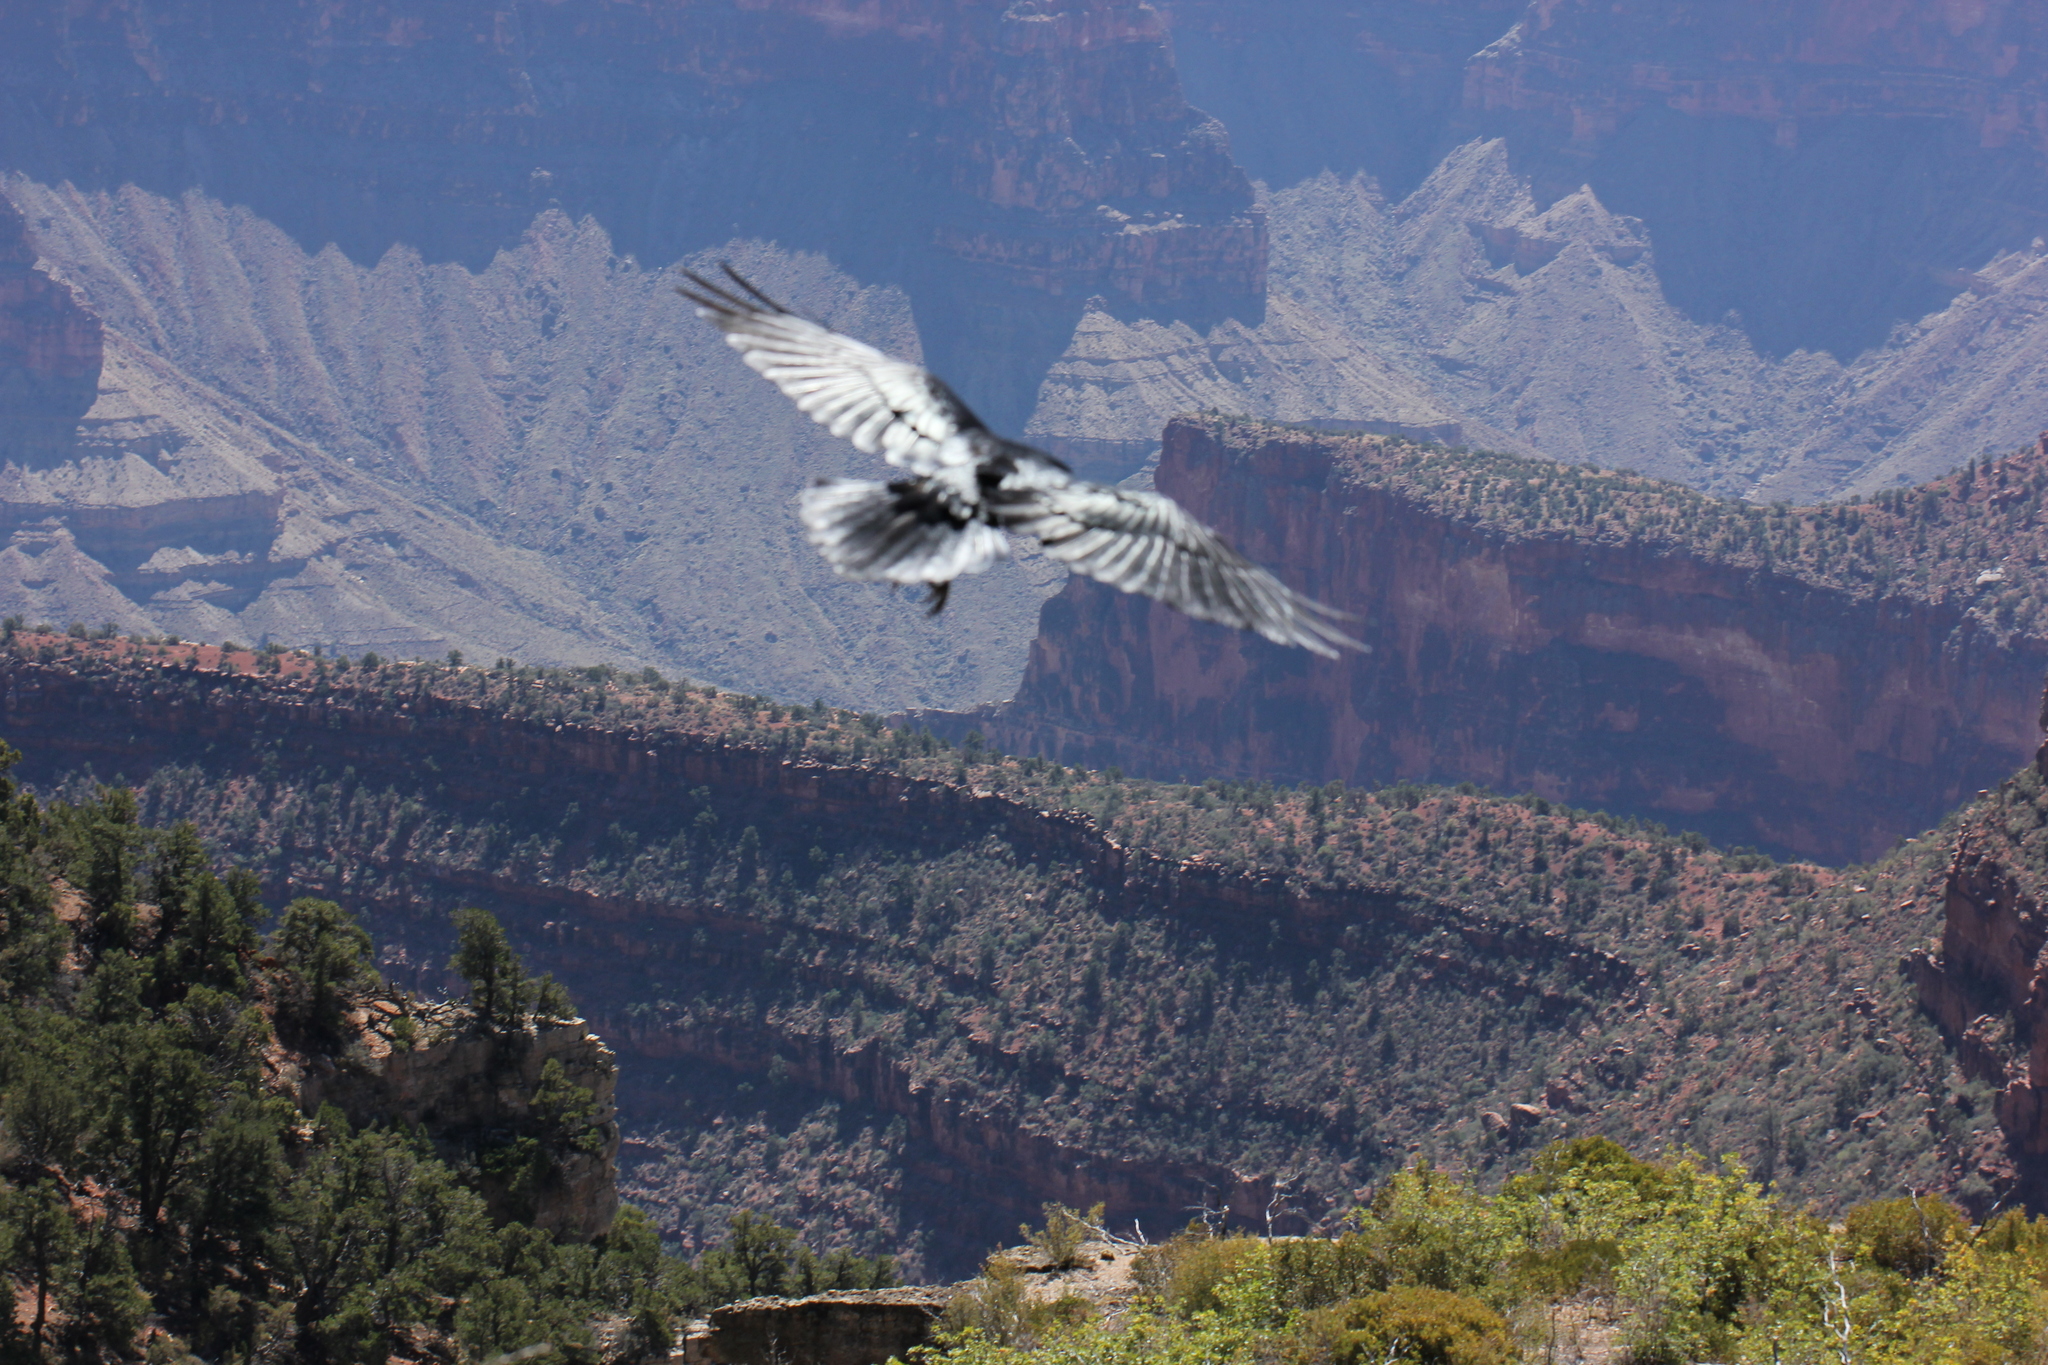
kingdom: Animalia
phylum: Chordata
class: Aves
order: Passeriformes
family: Corvidae
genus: Corvus
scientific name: Corvus corax
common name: Common raven
